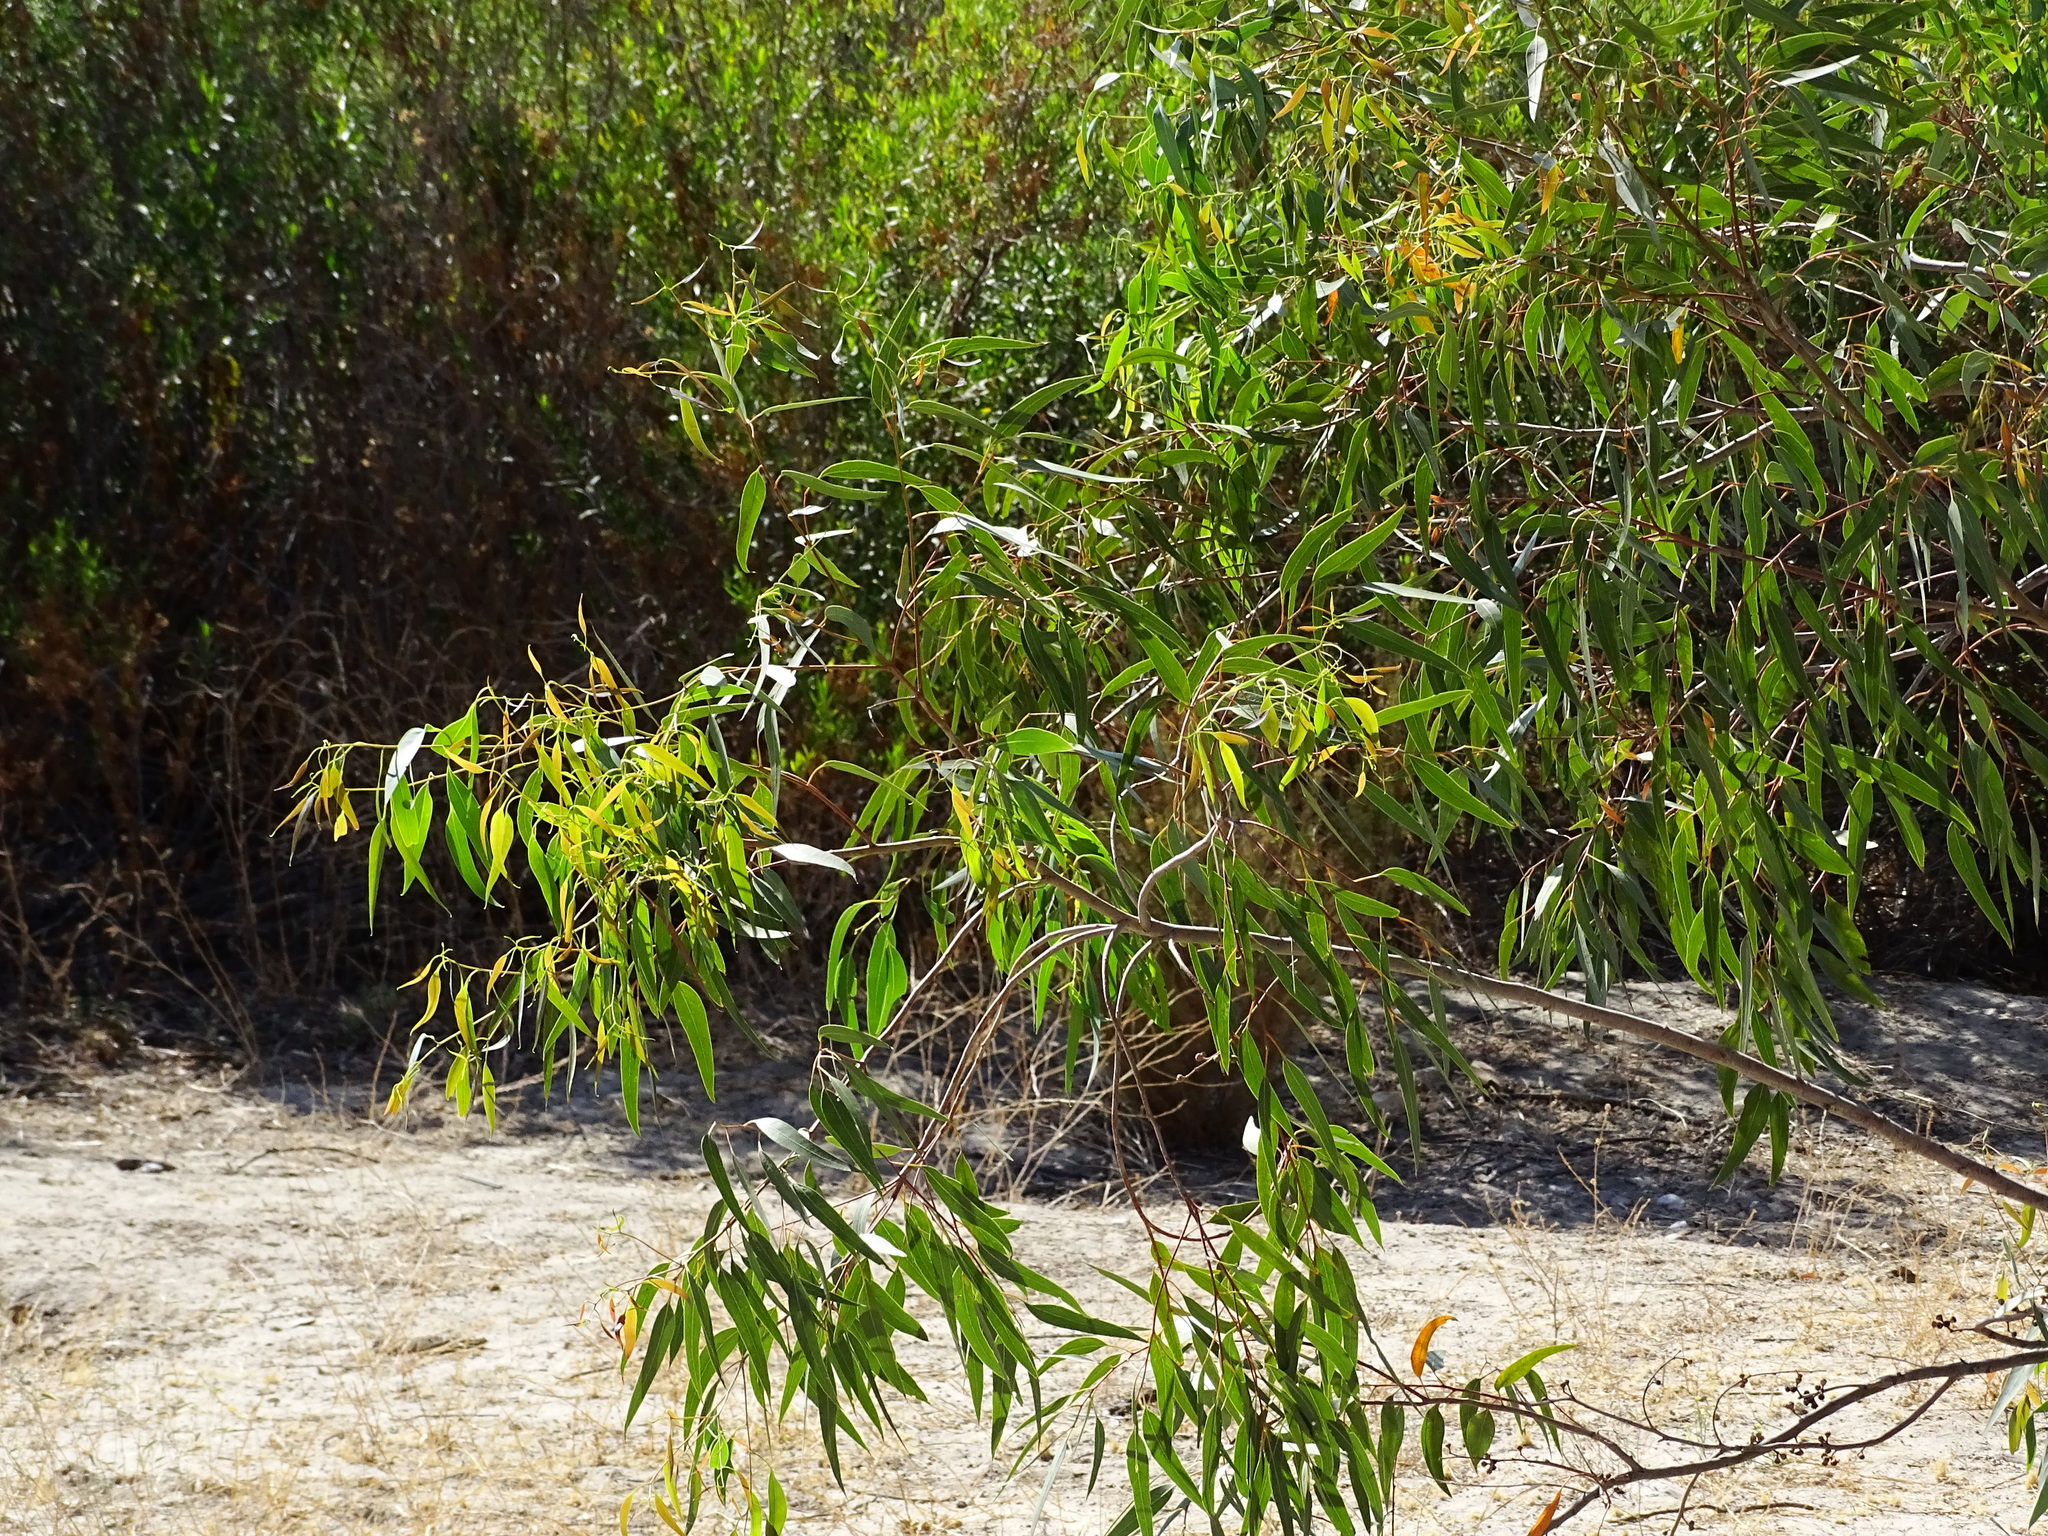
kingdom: Plantae
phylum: Tracheophyta
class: Magnoliopsida
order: Myrtales
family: Myrtaceae
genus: Eucalyptus
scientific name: Eucalyptus
